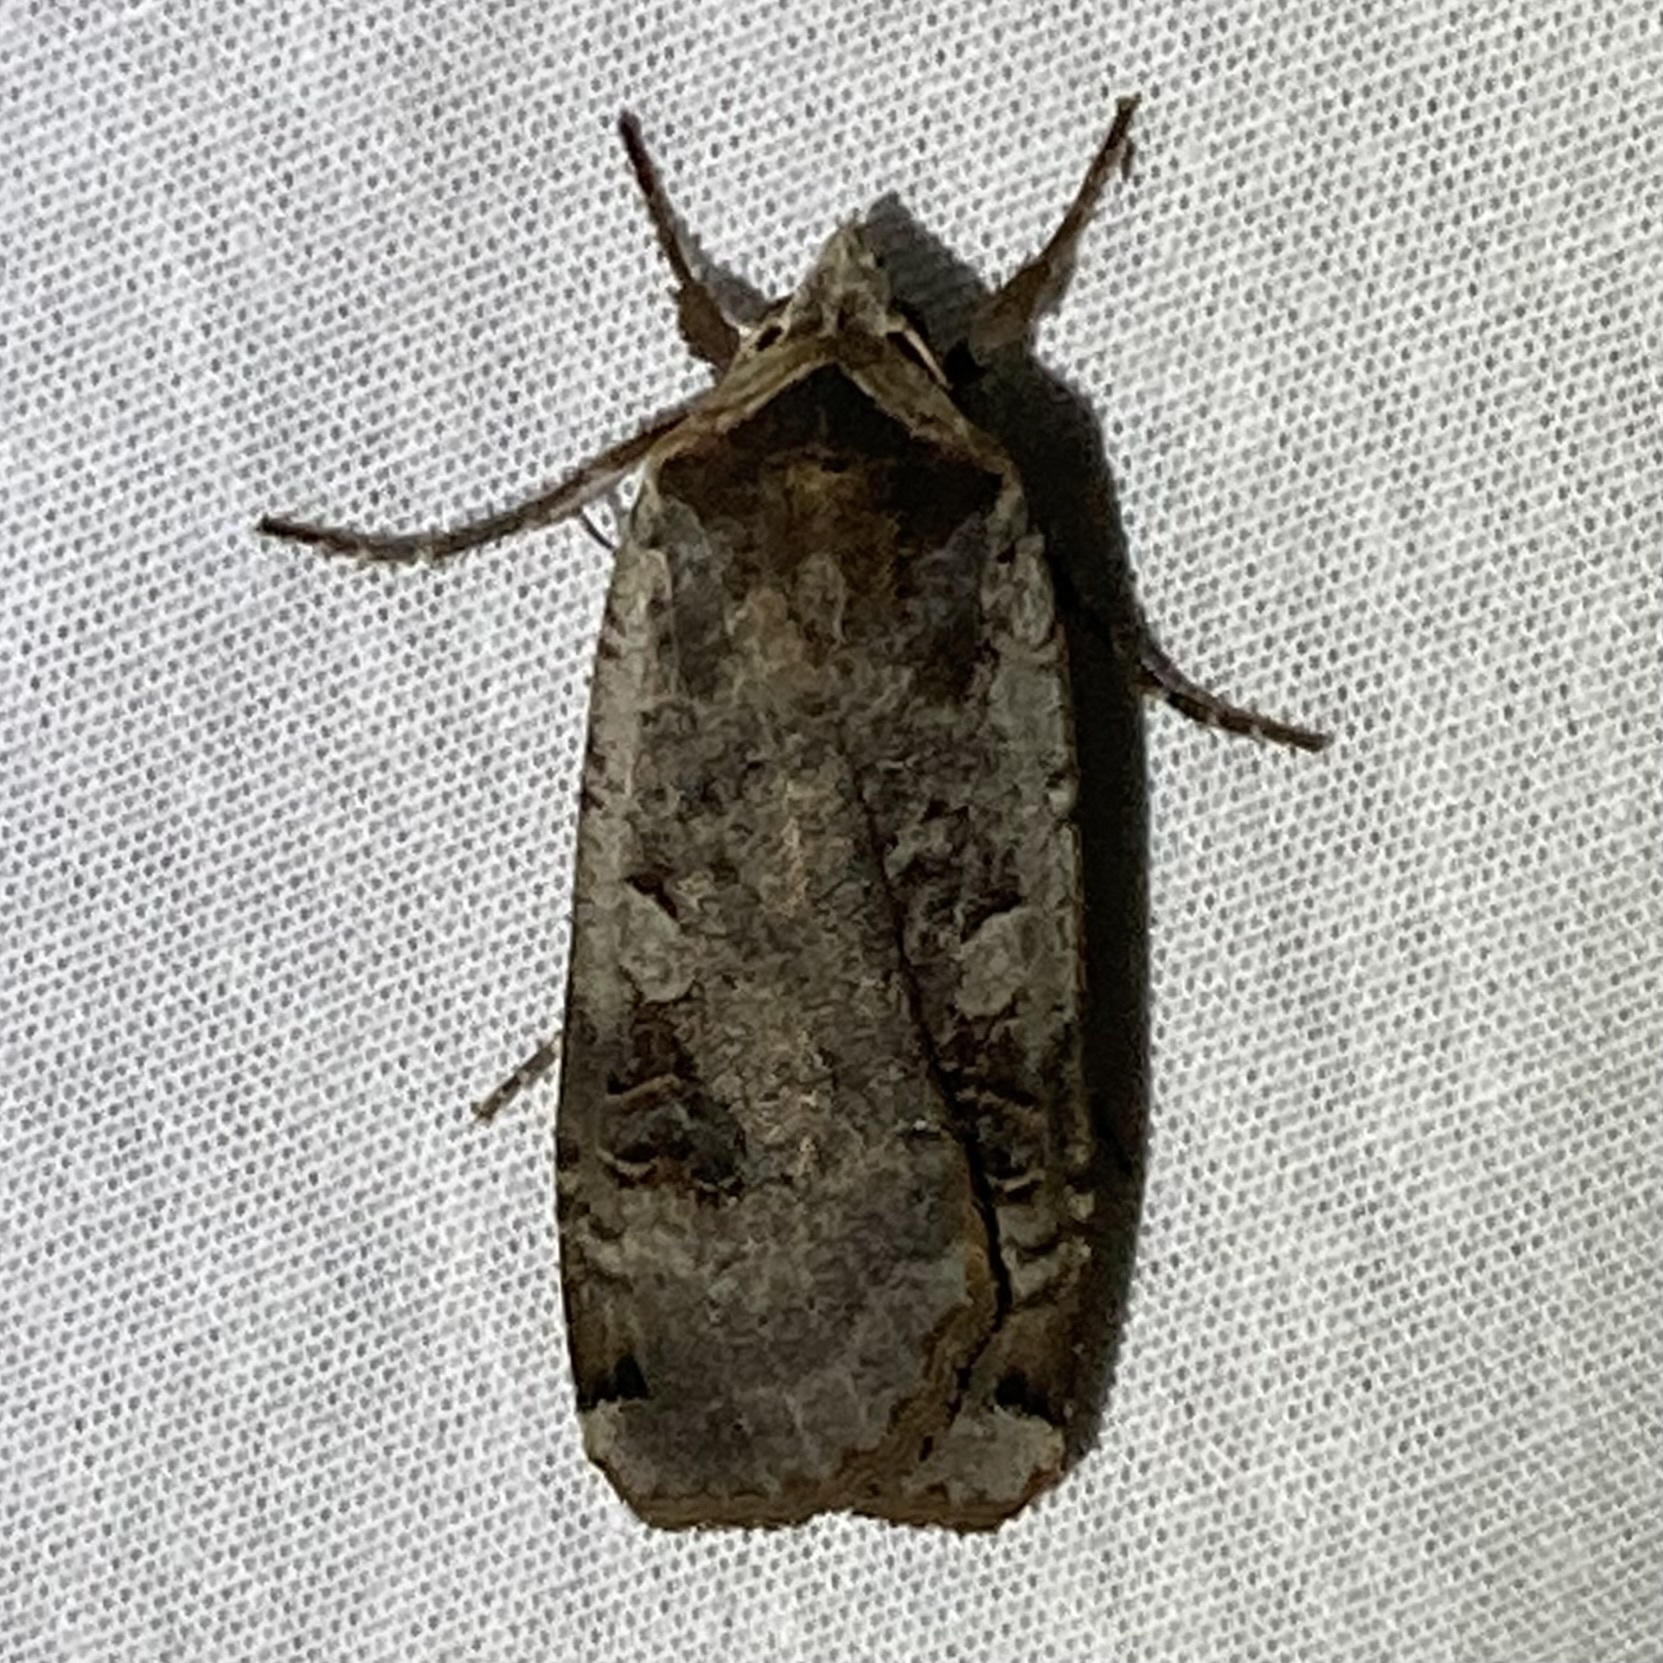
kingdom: Animalia
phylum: Arthropoda
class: Insecta
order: Lepidoptera
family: Noctuidae
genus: Noctua
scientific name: Noctua pronuba
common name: Large yellow underwing
